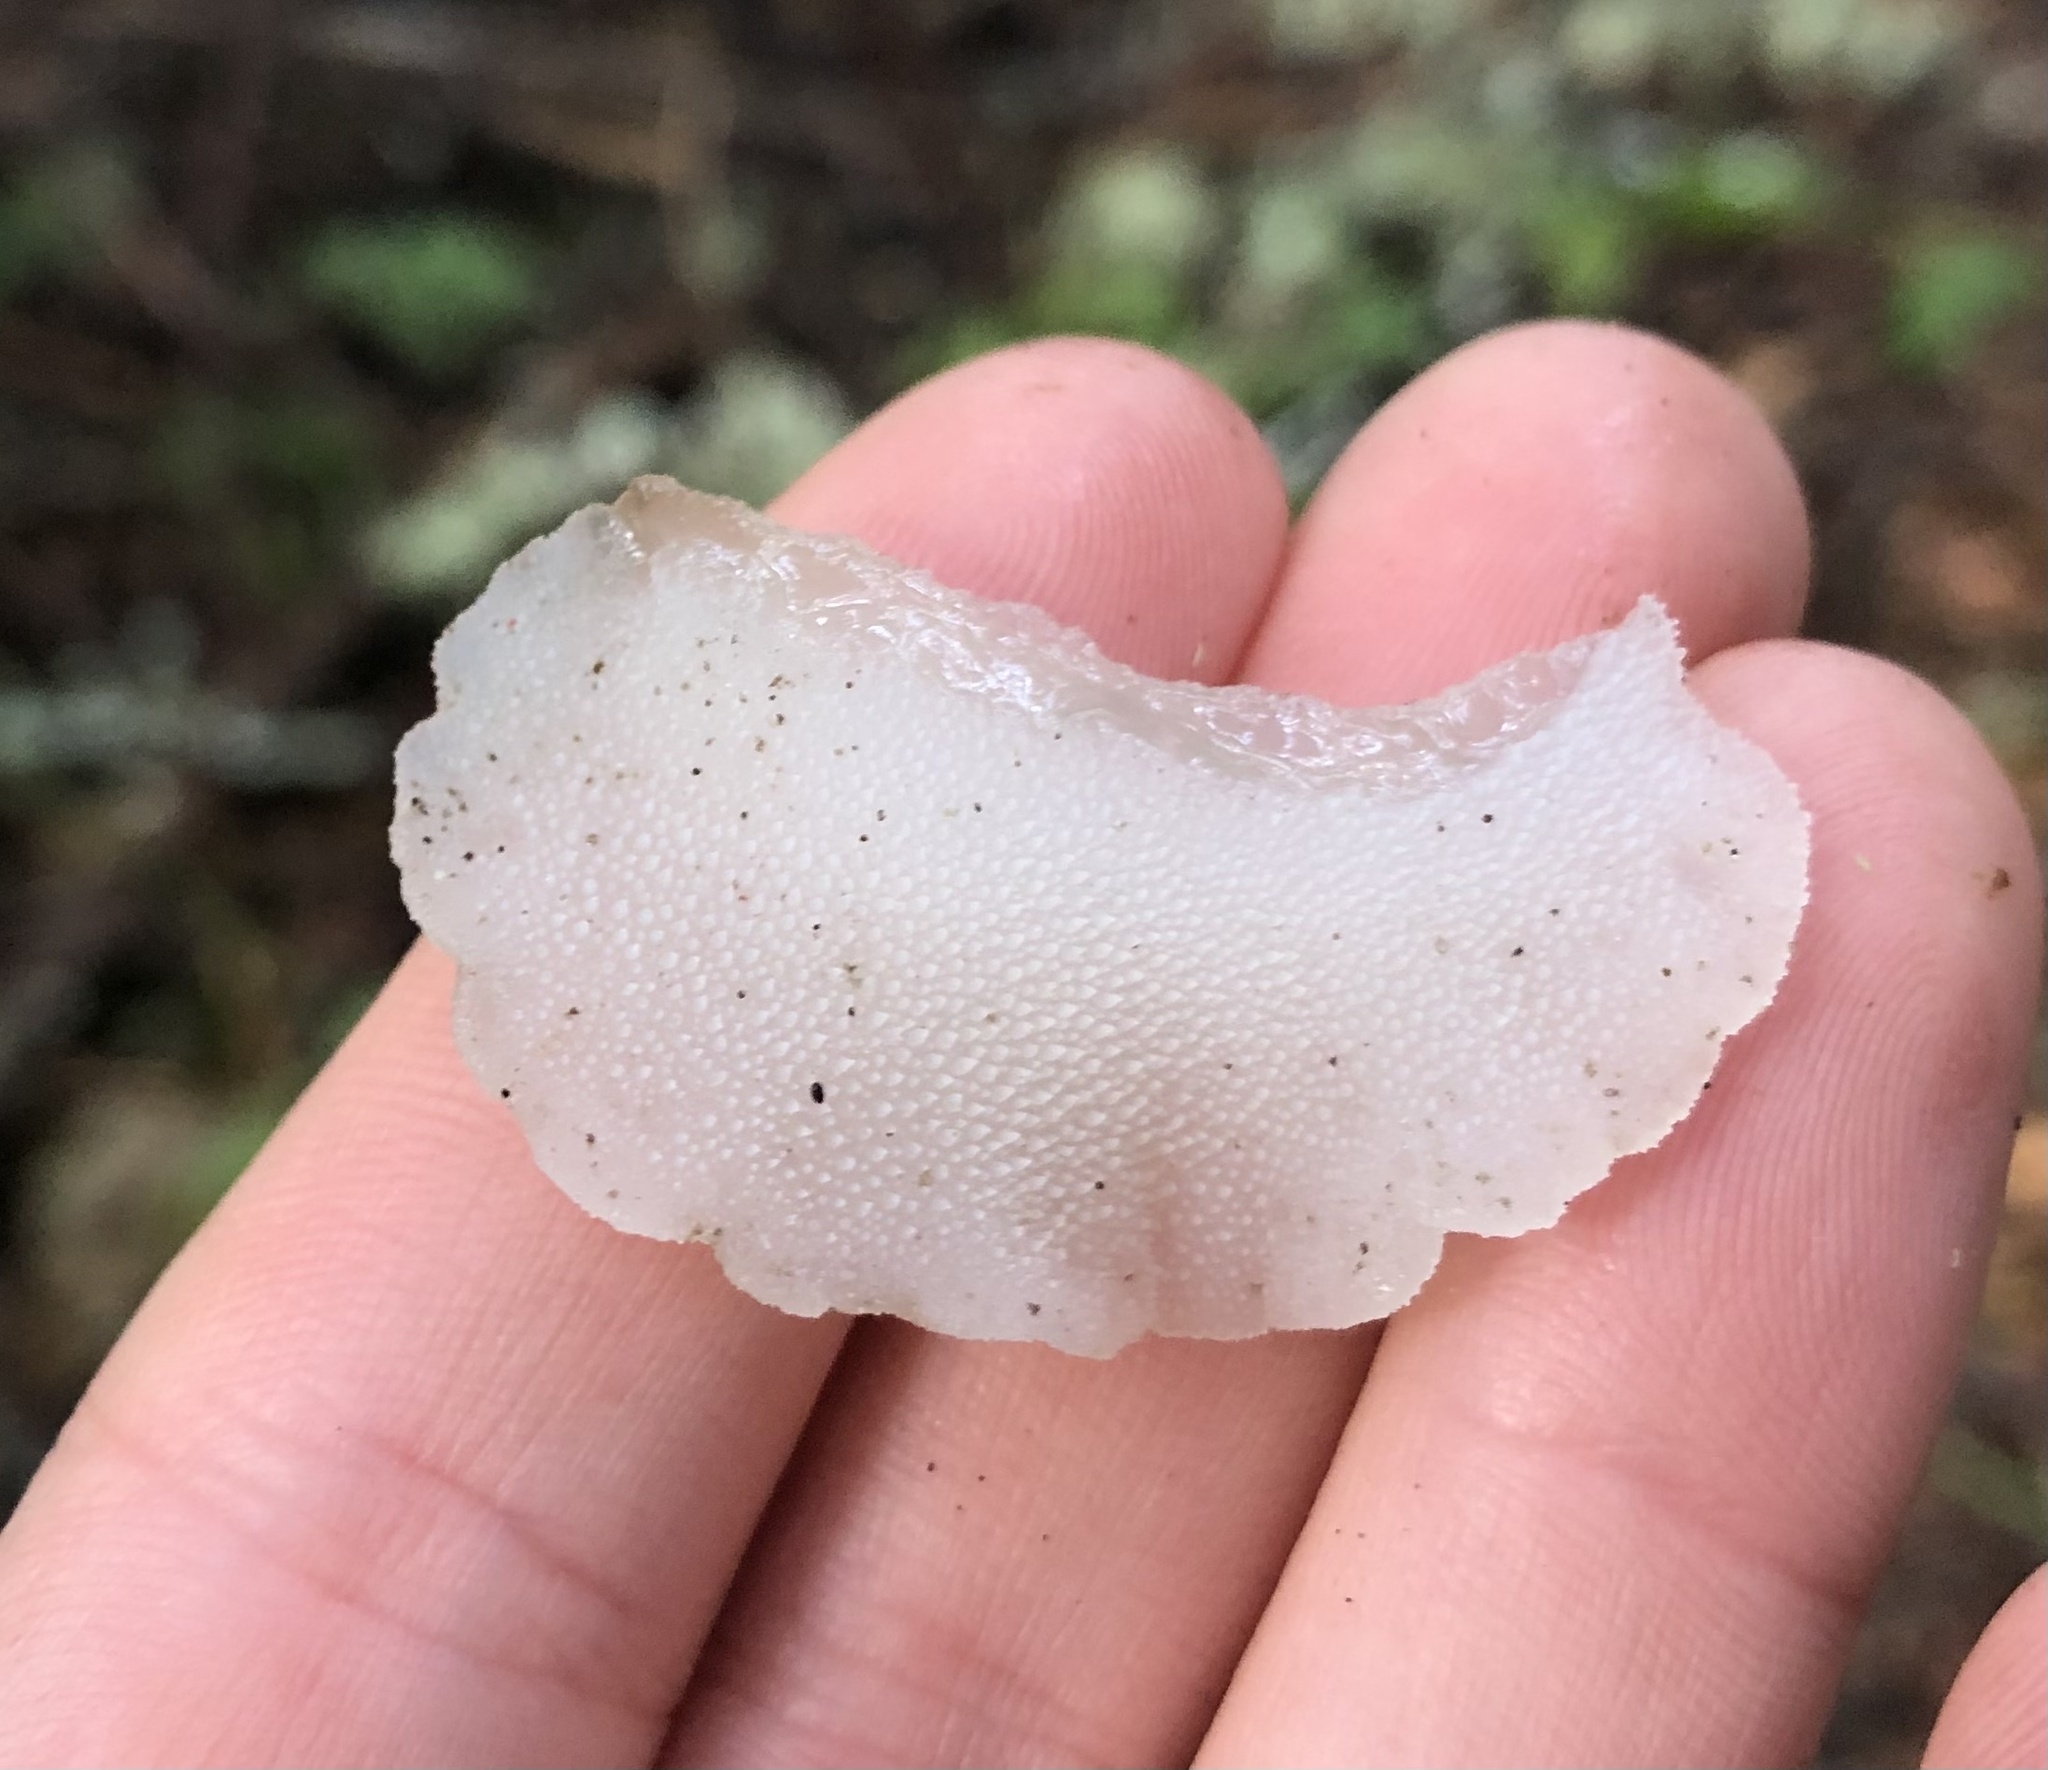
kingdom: Fungi
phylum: Basidiomycota
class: Agaricomycetes
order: Auriculariales
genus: Pseudohydnum
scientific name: Pseudohydnum gelatinosum
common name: Jelly tongue
